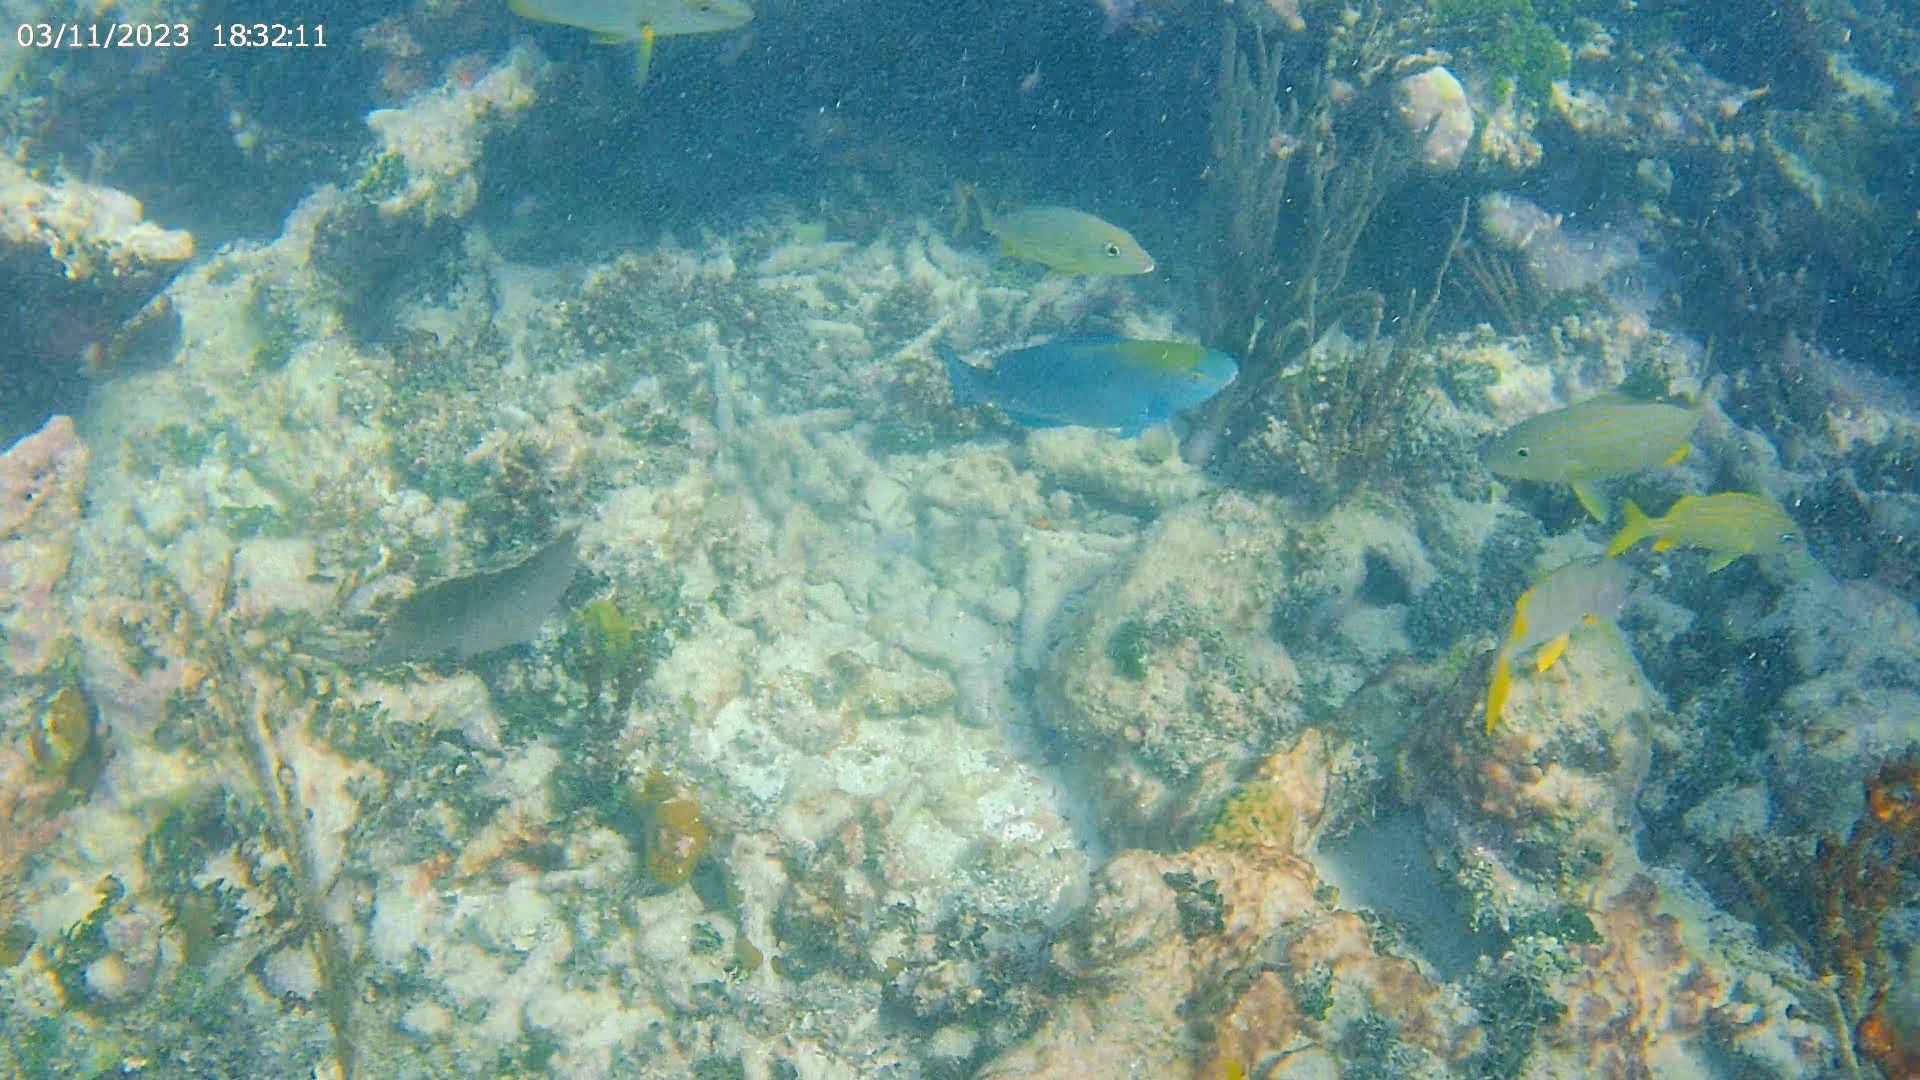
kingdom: Animalia
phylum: Chordata
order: Perciformes
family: Lutjanidae
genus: Lutjanus
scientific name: Lutjanus apodus
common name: Schoolmaster
